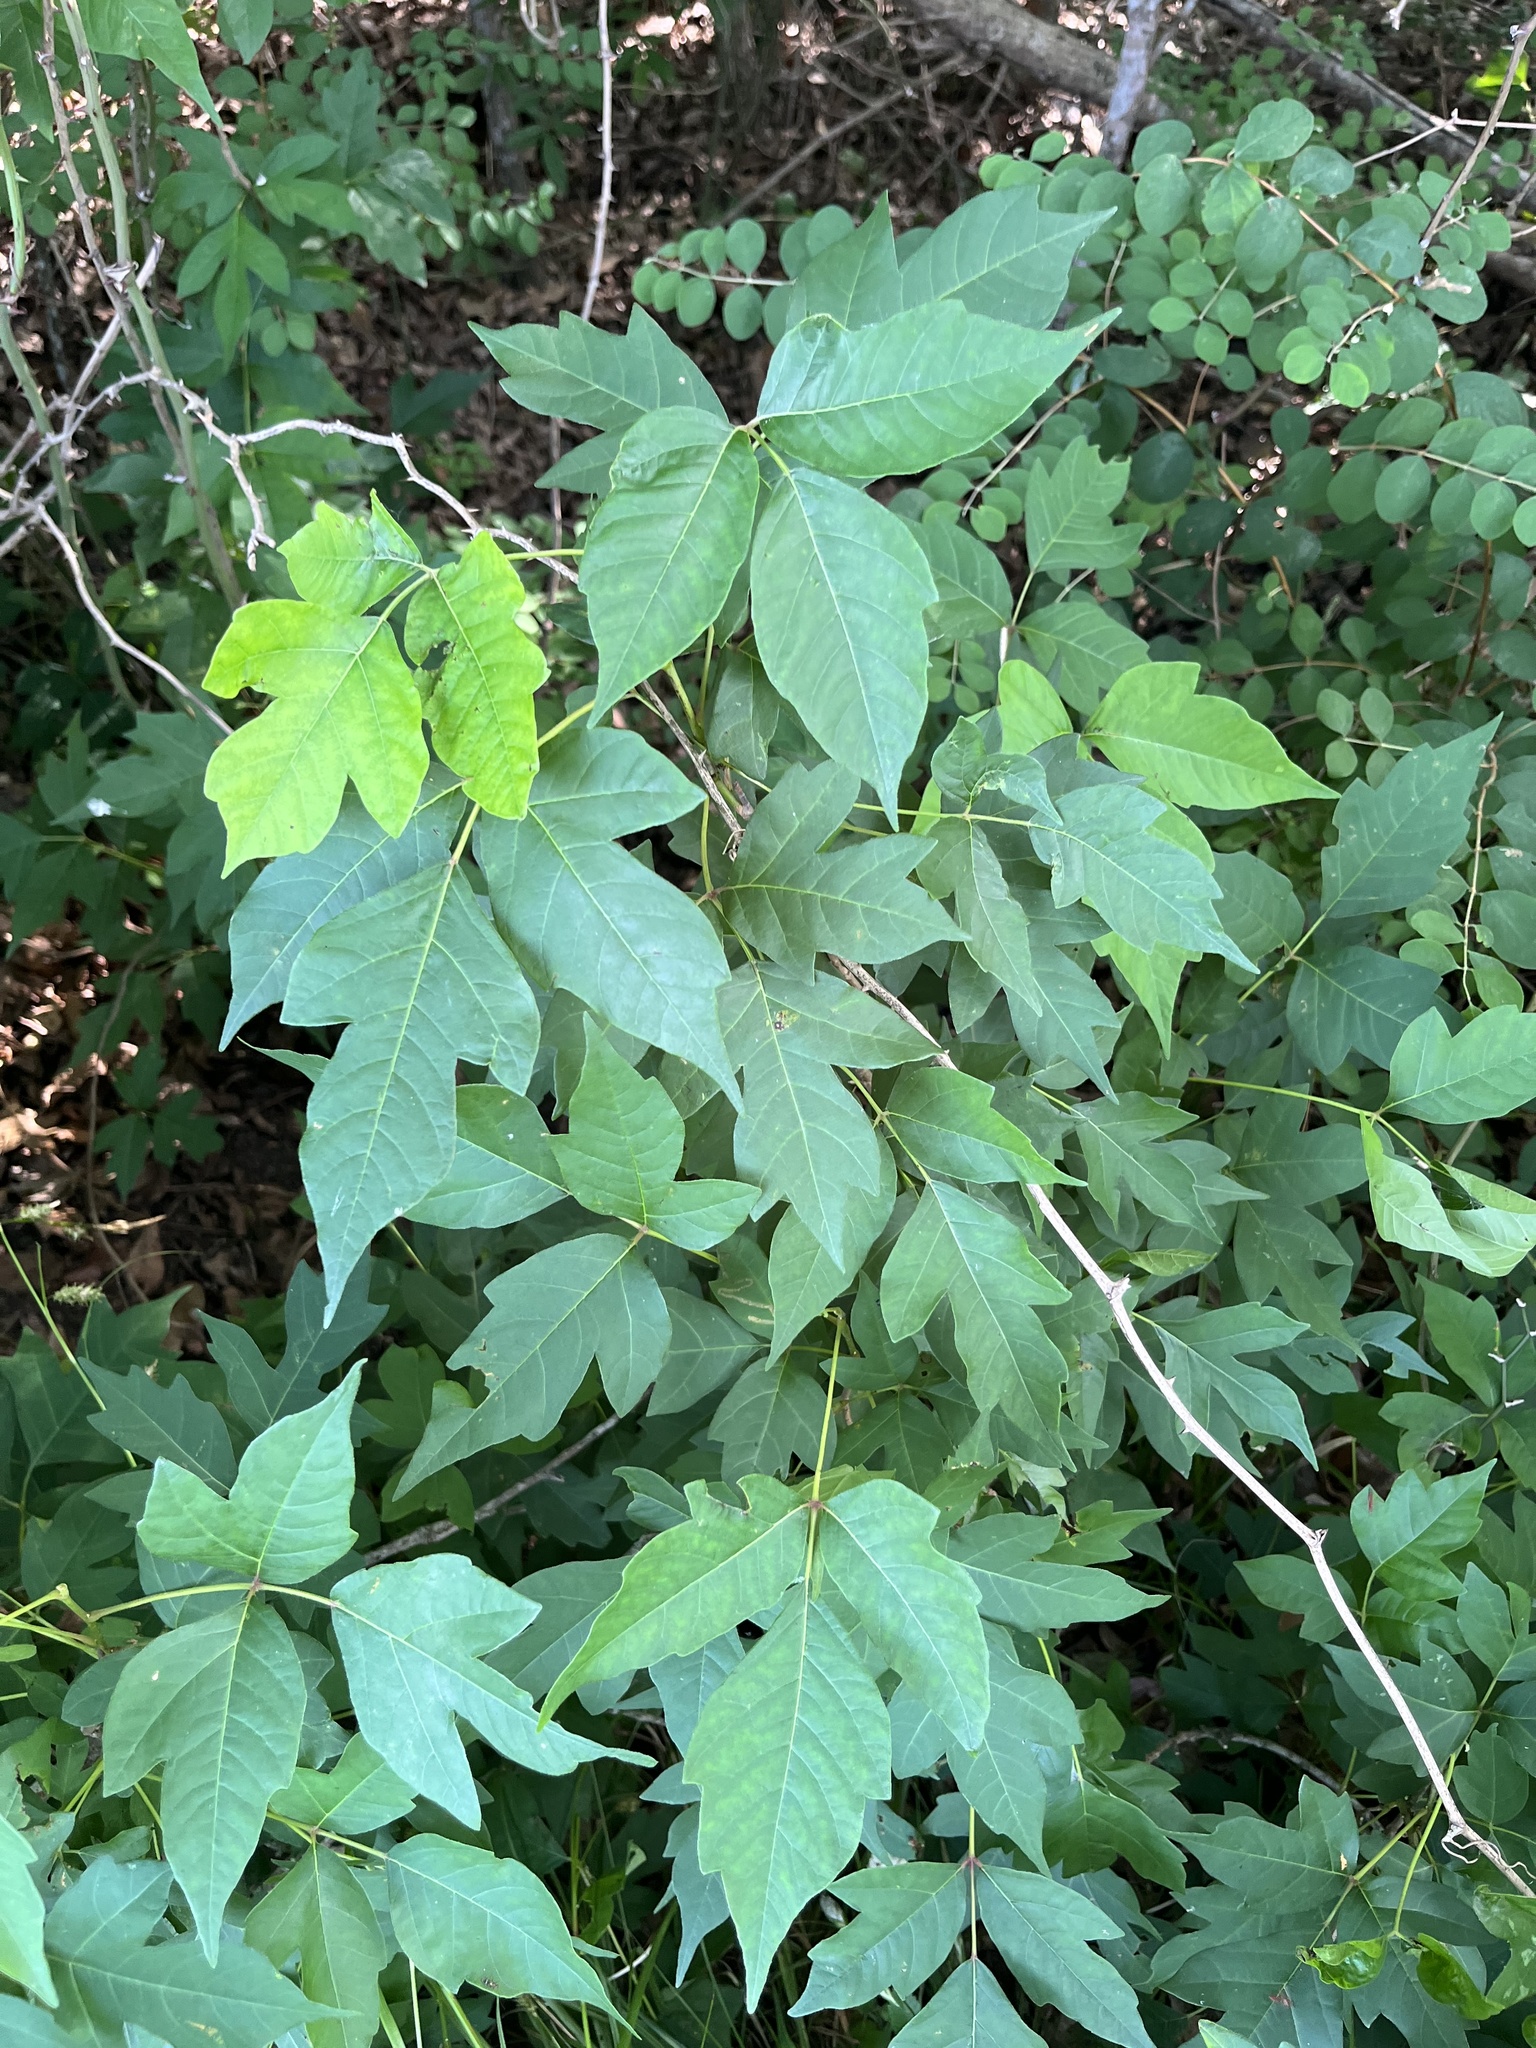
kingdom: Plantae
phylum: Tracheophyta
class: Magnoliopsida
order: Sapindales
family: Anacardiaceae
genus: Toxicodendron
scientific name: Toxicodendron radicans
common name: Poison ivy
